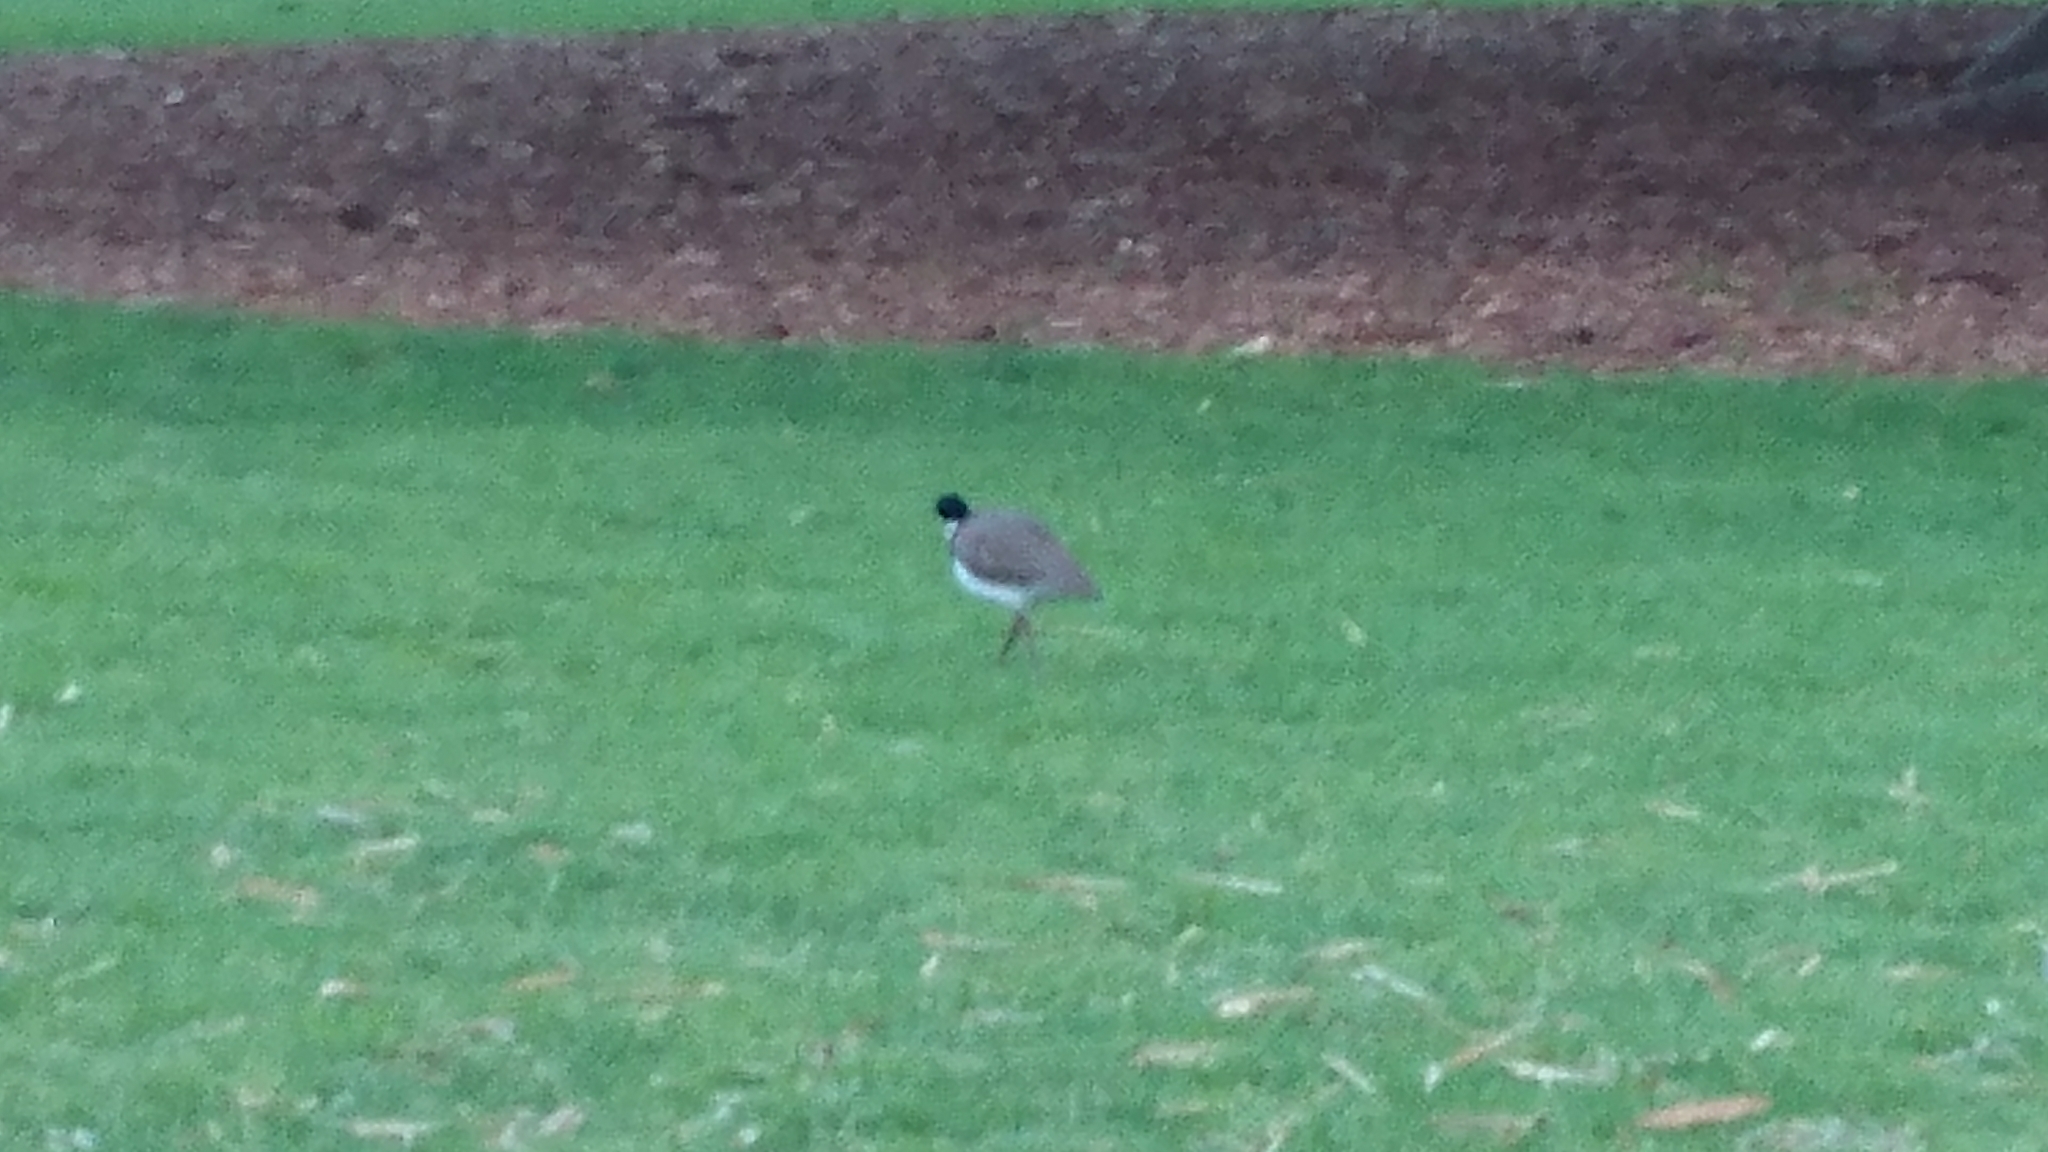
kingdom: Animalia
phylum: Chordata
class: Aves
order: Charadriiformes
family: Charadriidae
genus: Vanellus
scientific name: Vanellus miles
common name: Masked lapwing
